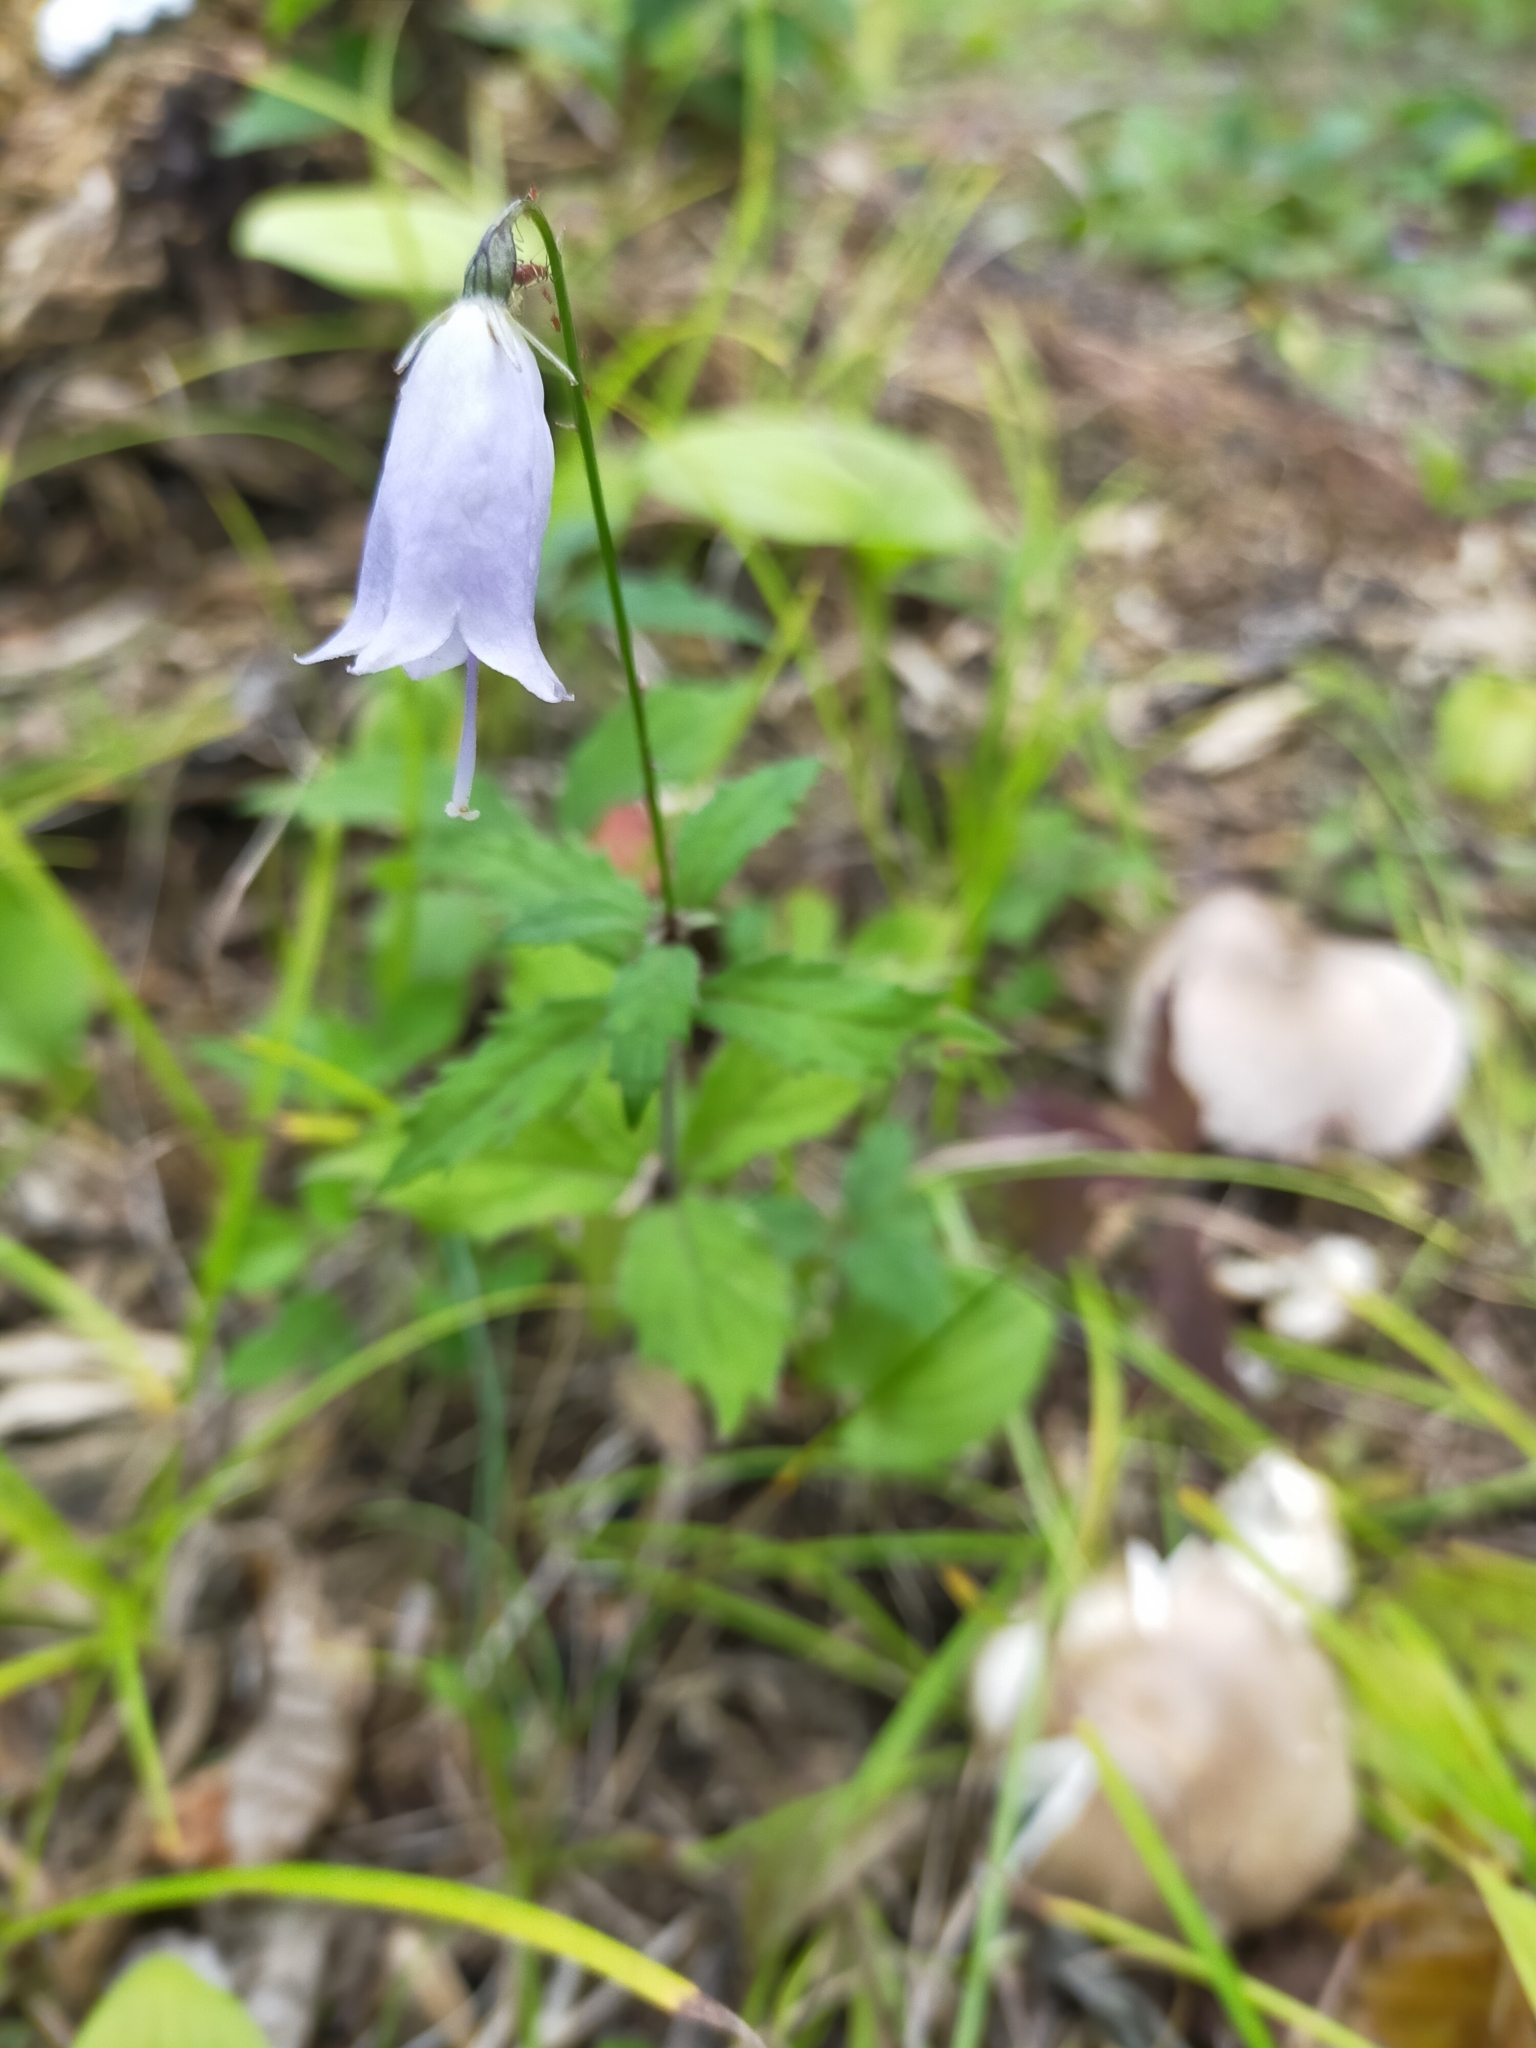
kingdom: Plantae
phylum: Tracheophyta
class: Magnoliopsida
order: Asterales
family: Campanulaceae
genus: Adenophora
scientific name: Adenophora pereskiifolia
